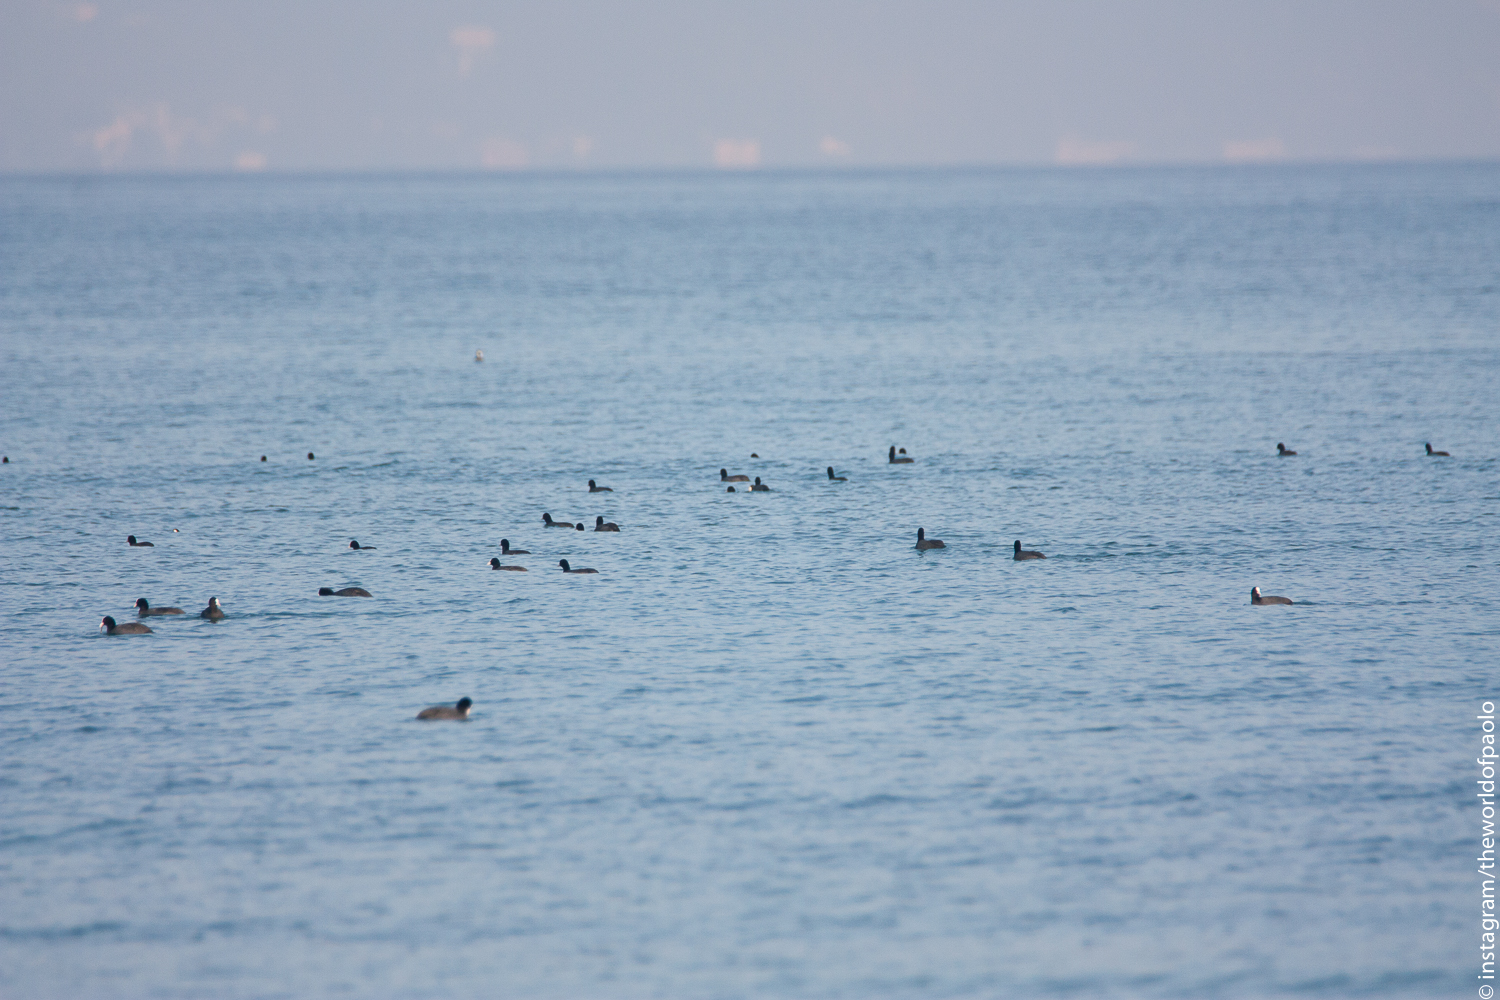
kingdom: Animalia
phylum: Chordata
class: Aves
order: Gruiformes
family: Rallidae
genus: Fulica
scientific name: Fulica atra
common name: Eurasian coot
